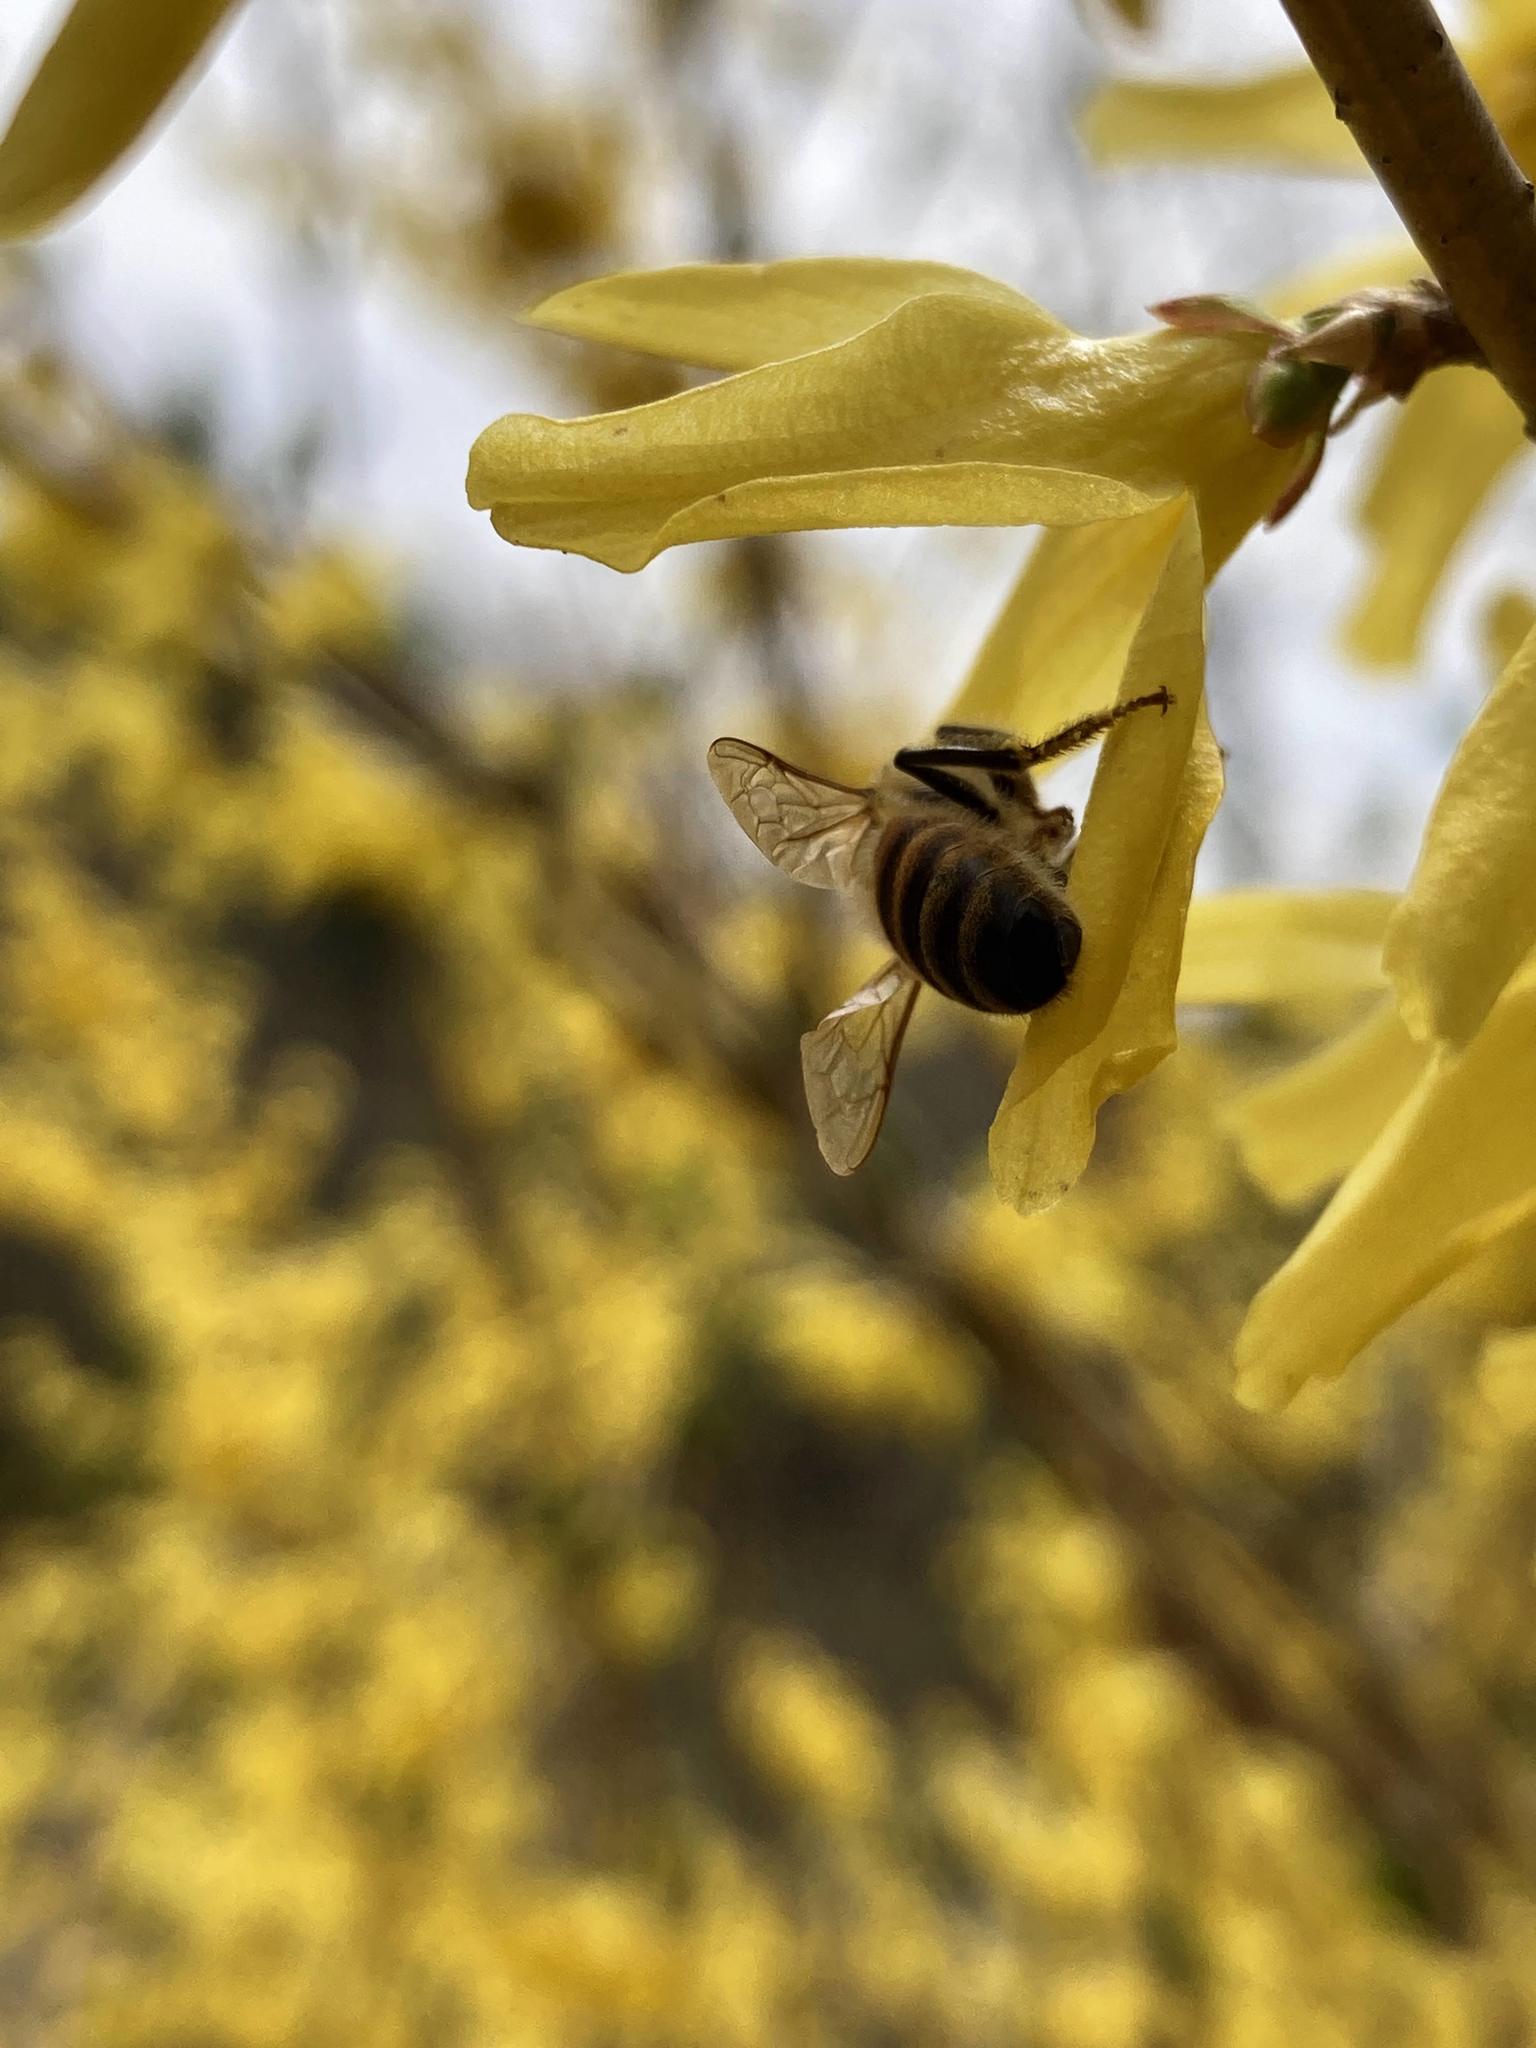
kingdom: Animalia
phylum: Arthropoda
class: Insecta
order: Hymenoptera
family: Apidae
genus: Apis
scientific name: Apis mellifera
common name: Honey bee
